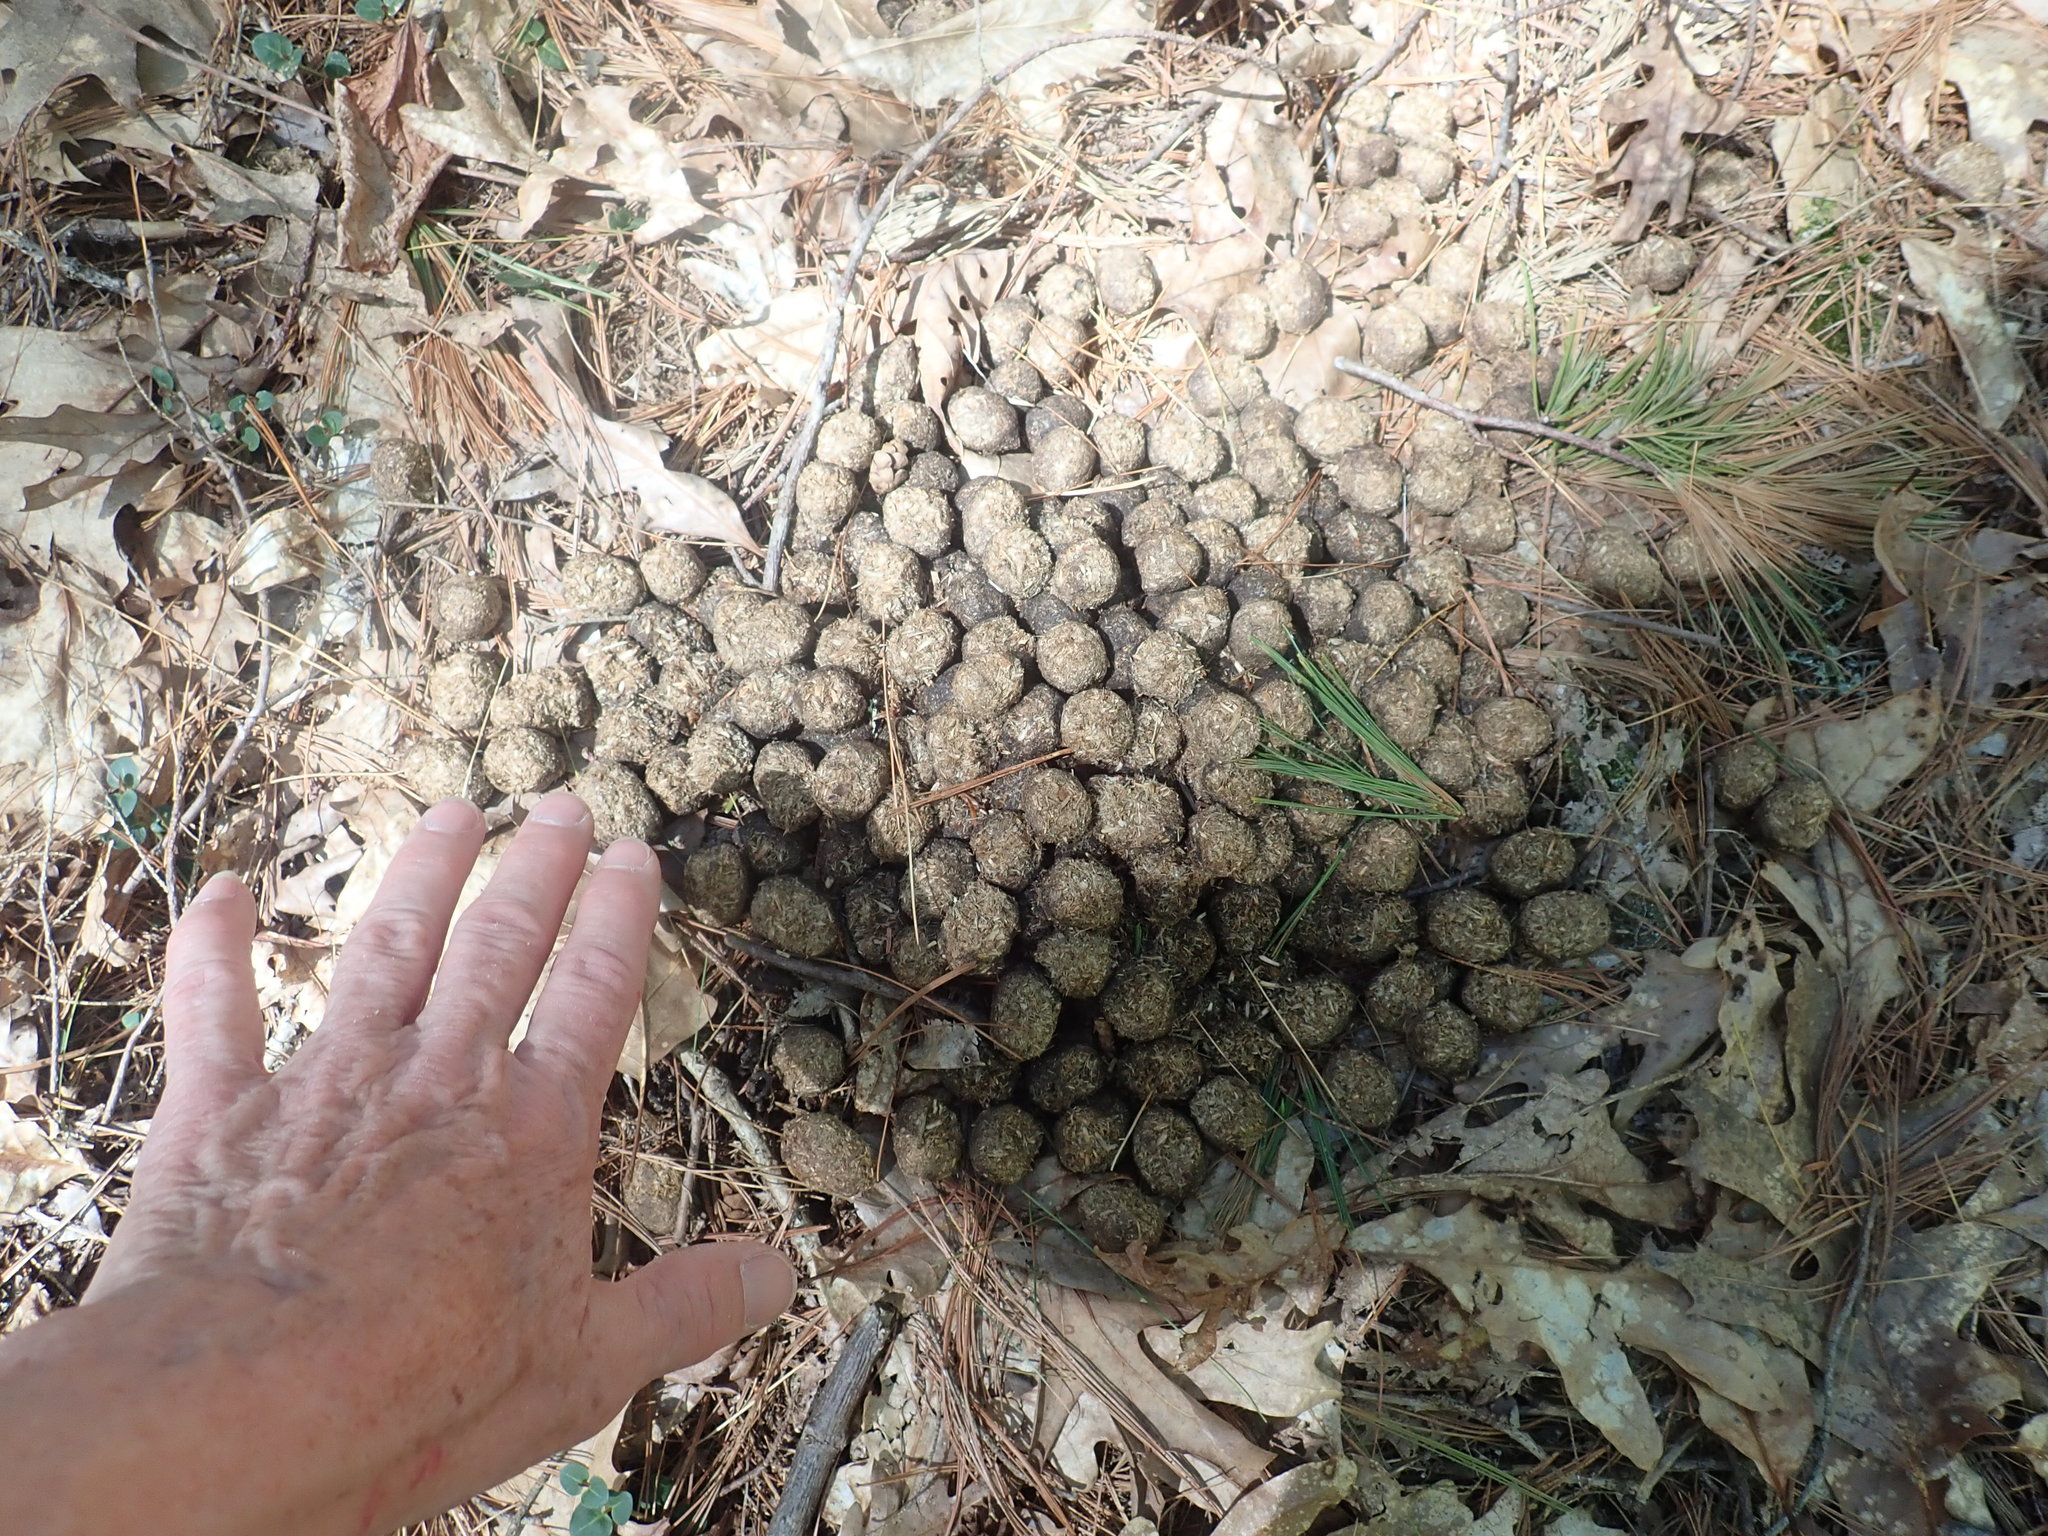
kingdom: Animalia
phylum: Chordata
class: Mammalia
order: Artiodactyla
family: Cervidae
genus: Alces
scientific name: Alces alces
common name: Moose
